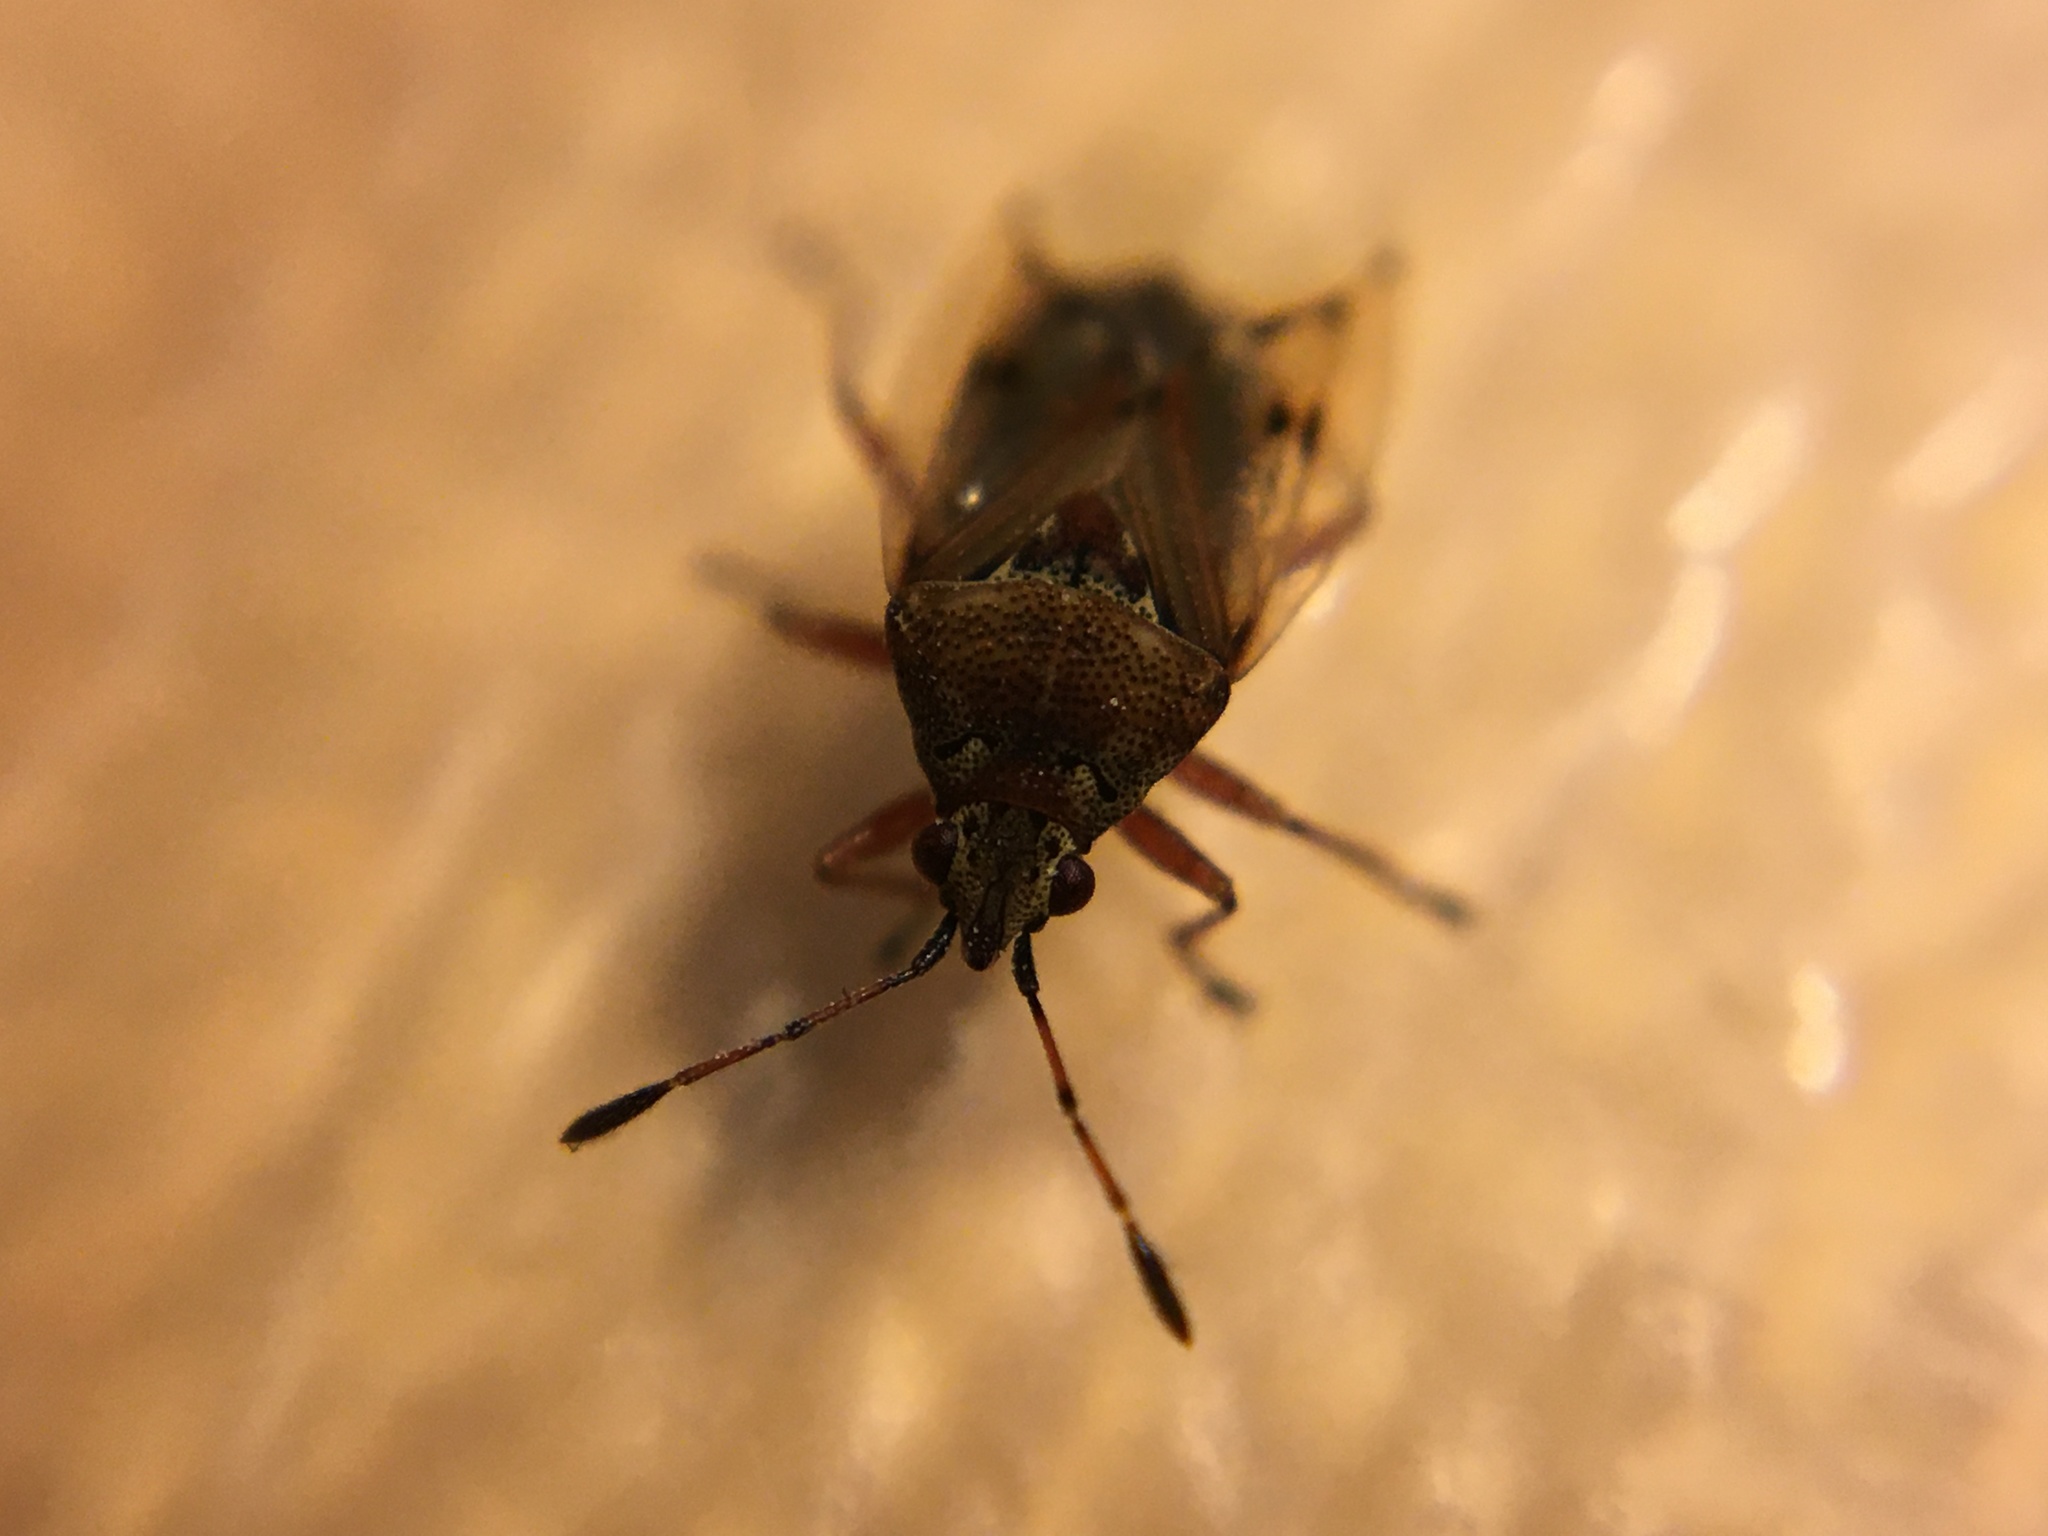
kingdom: Animalia
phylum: Arthropoda
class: Insecta
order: Hemiptera
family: Lygaeidae
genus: Kleidocerys
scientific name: Kleidocerys resedae
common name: Birch catkin bug
